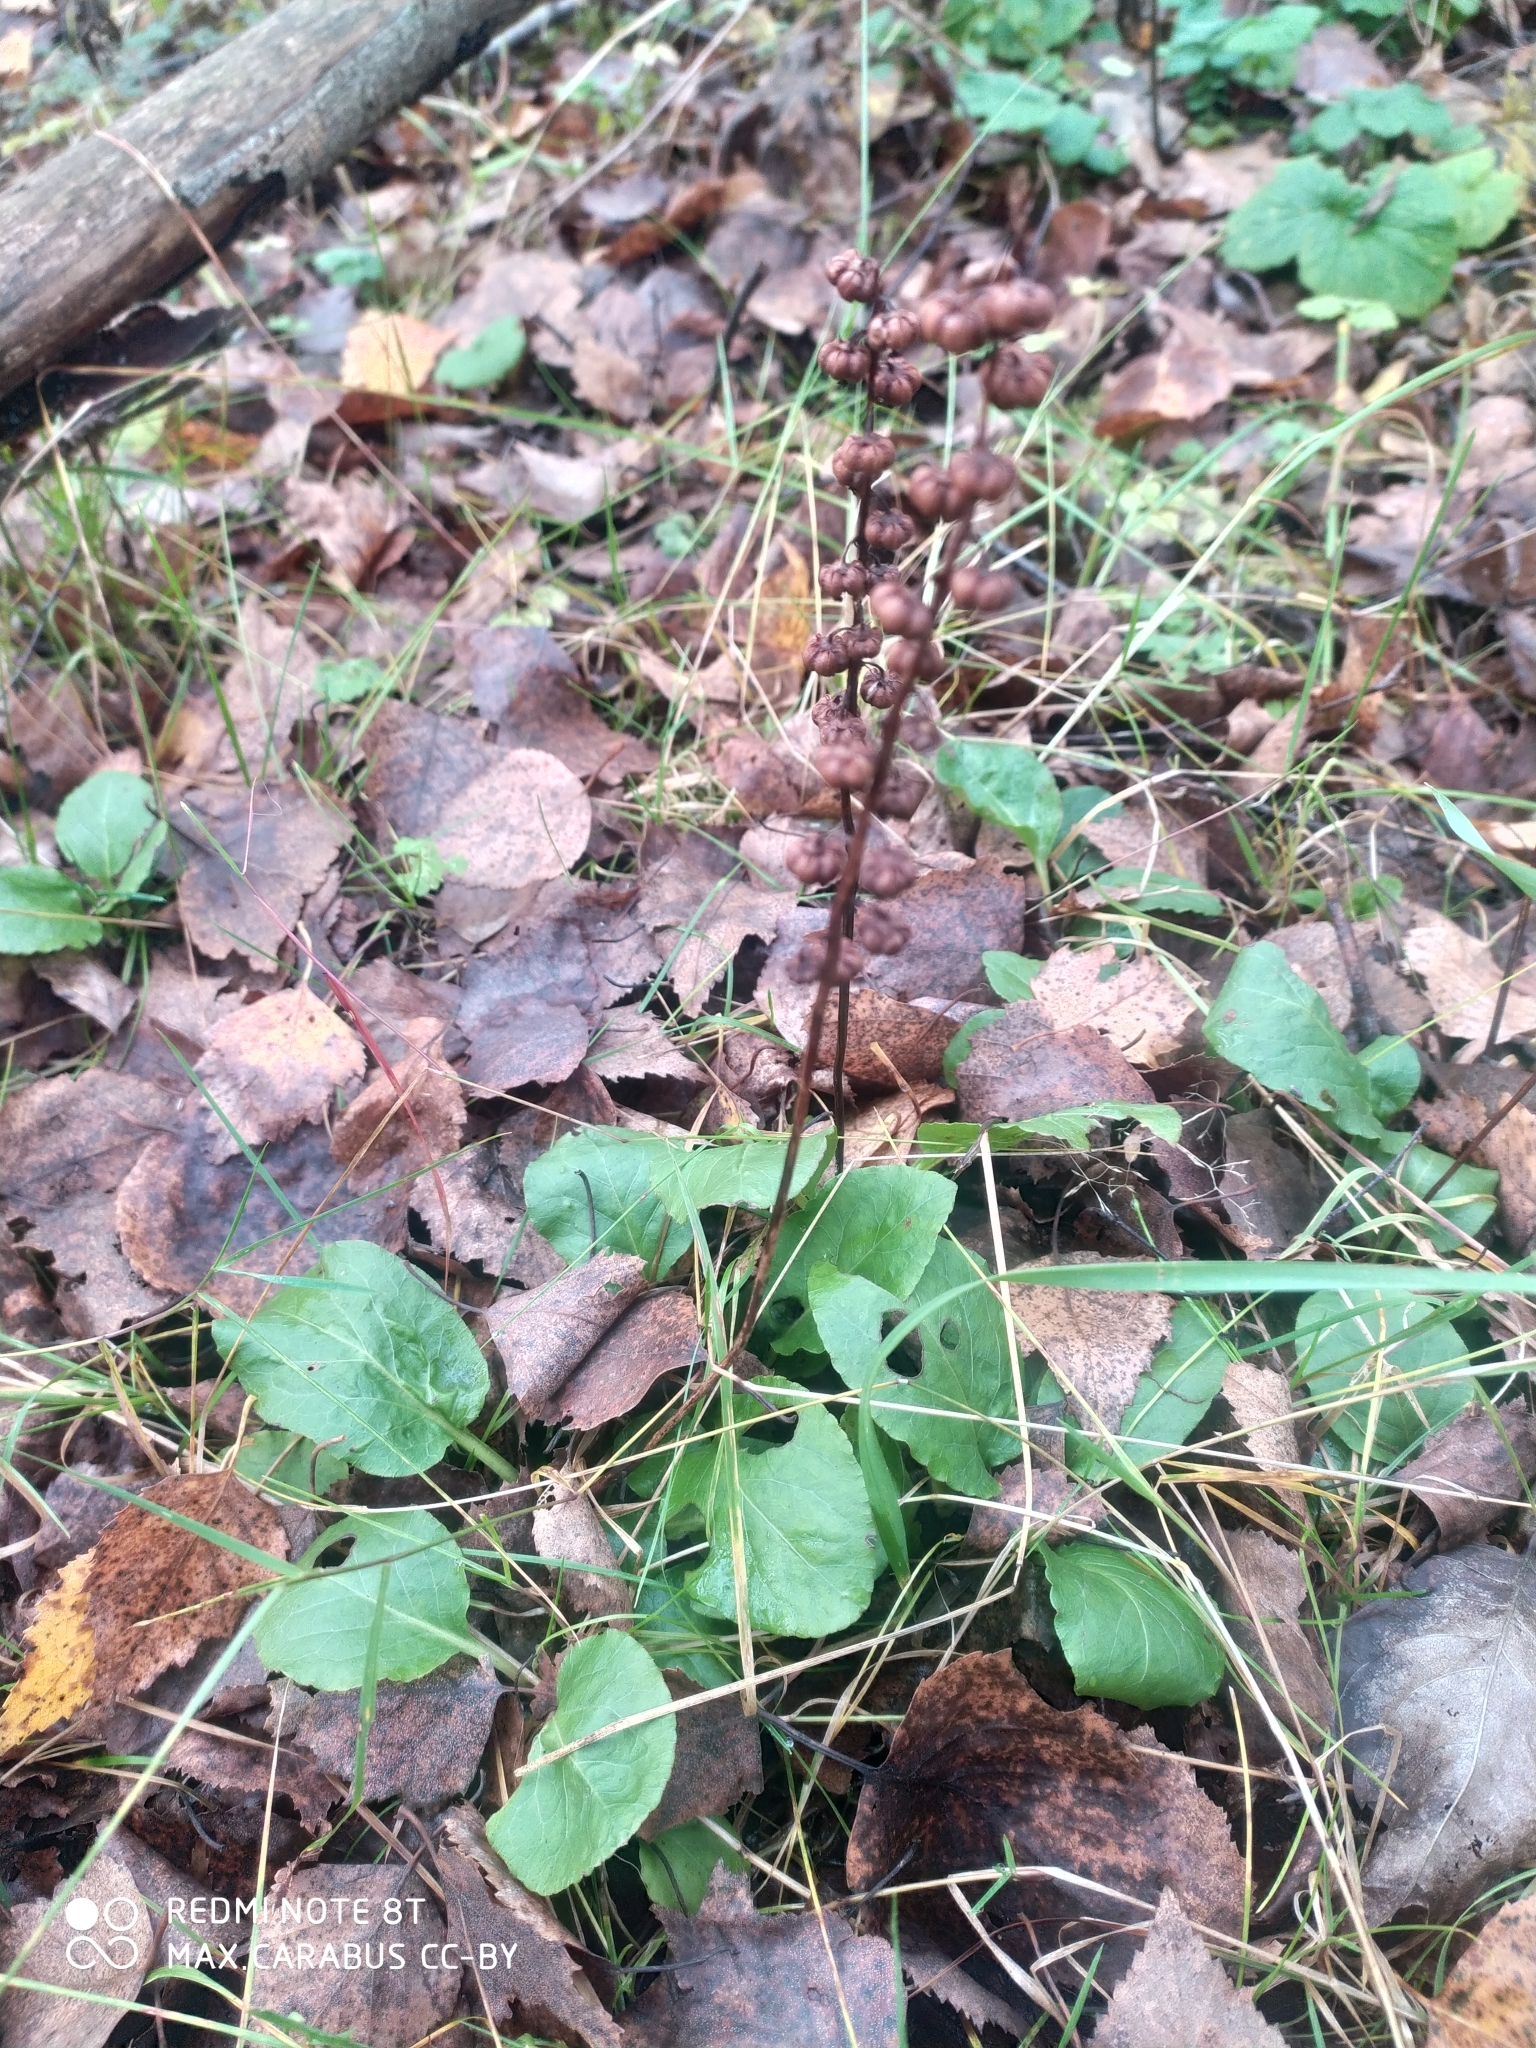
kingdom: Plantae
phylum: Tracheophyta
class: Magnoliopsida
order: Ericales
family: Ericaceae
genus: Pyrola
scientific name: Pyrola minor
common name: Common wintergreen
